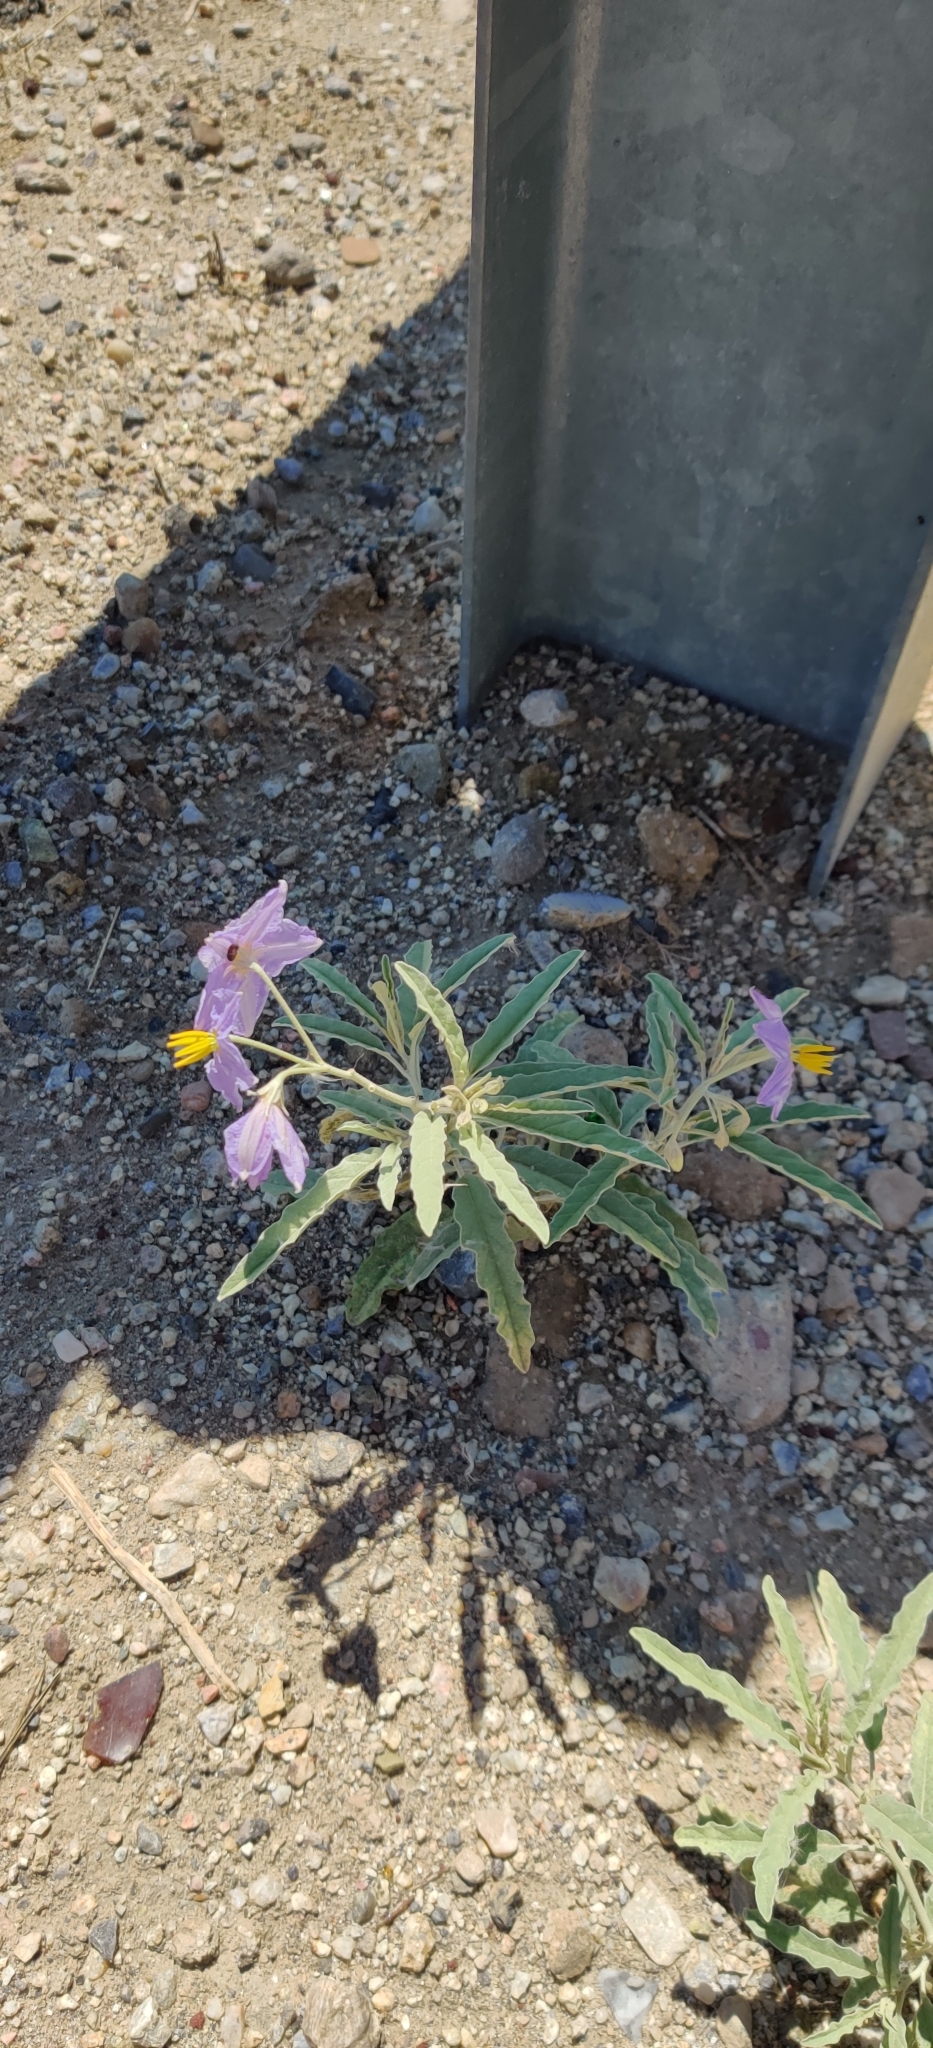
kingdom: Plantae
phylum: Tracheophyta
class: Magnoliopsida
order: Solanales
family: Solanaceae
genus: Solanum
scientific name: Solanum elaeagnifolium
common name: Silverleaf nightshade
